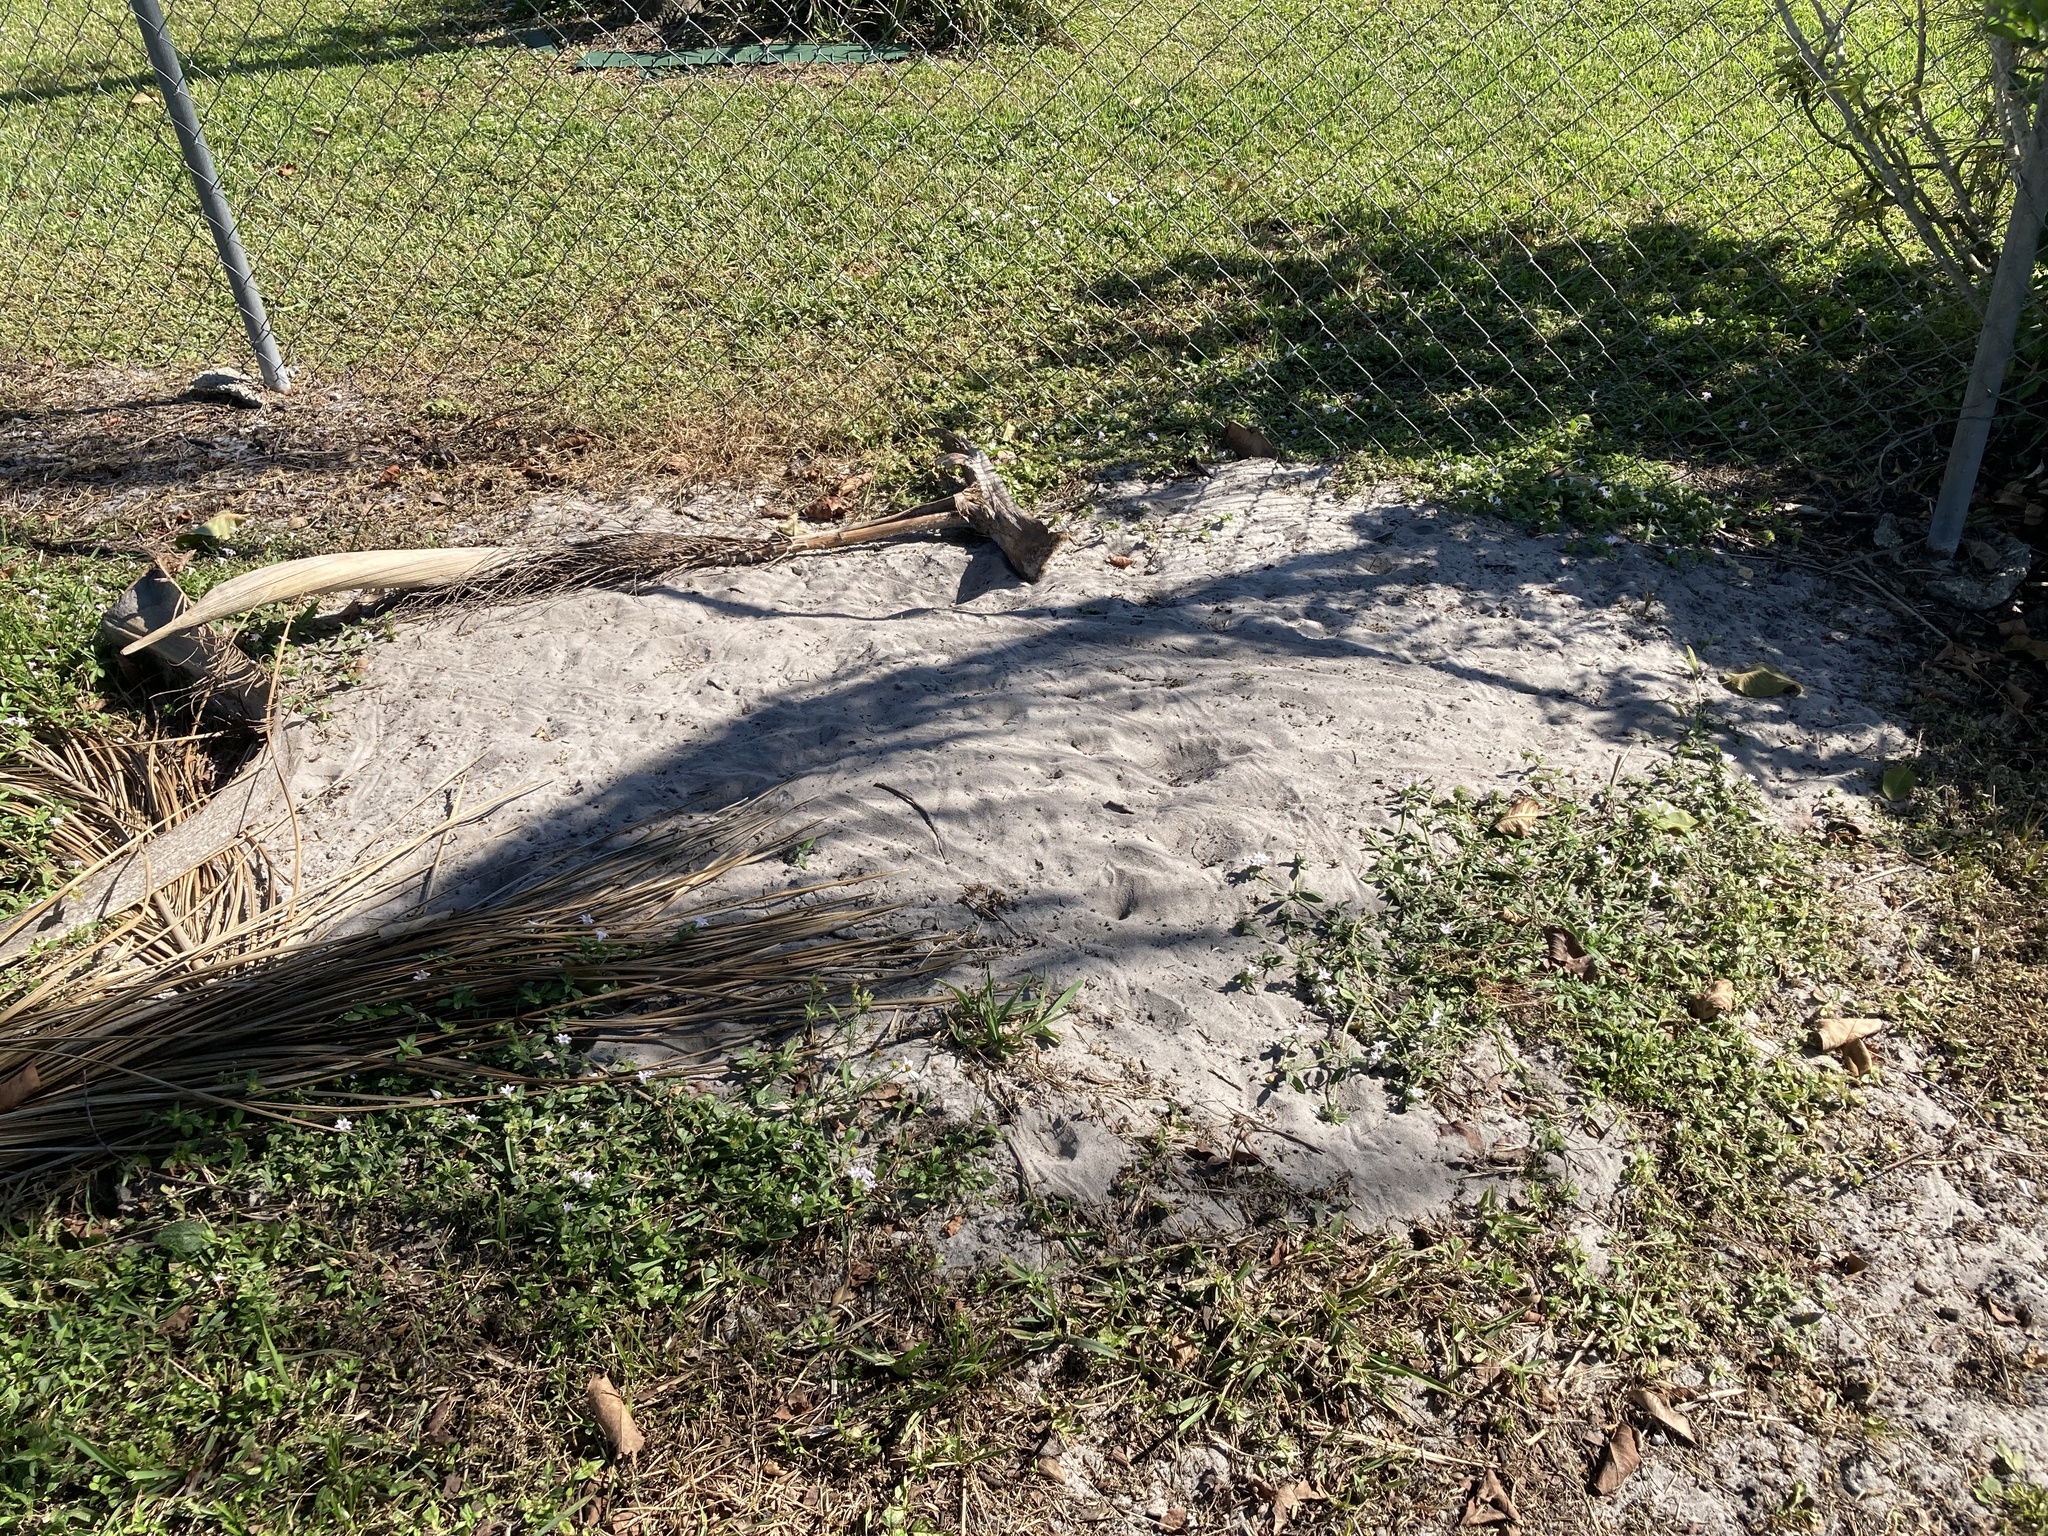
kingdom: Animalia
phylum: Chordata
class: Testudines
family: Testudinidae
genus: Gopherus
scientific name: Gopherus polyphemus
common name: Florida gopher tortoise
